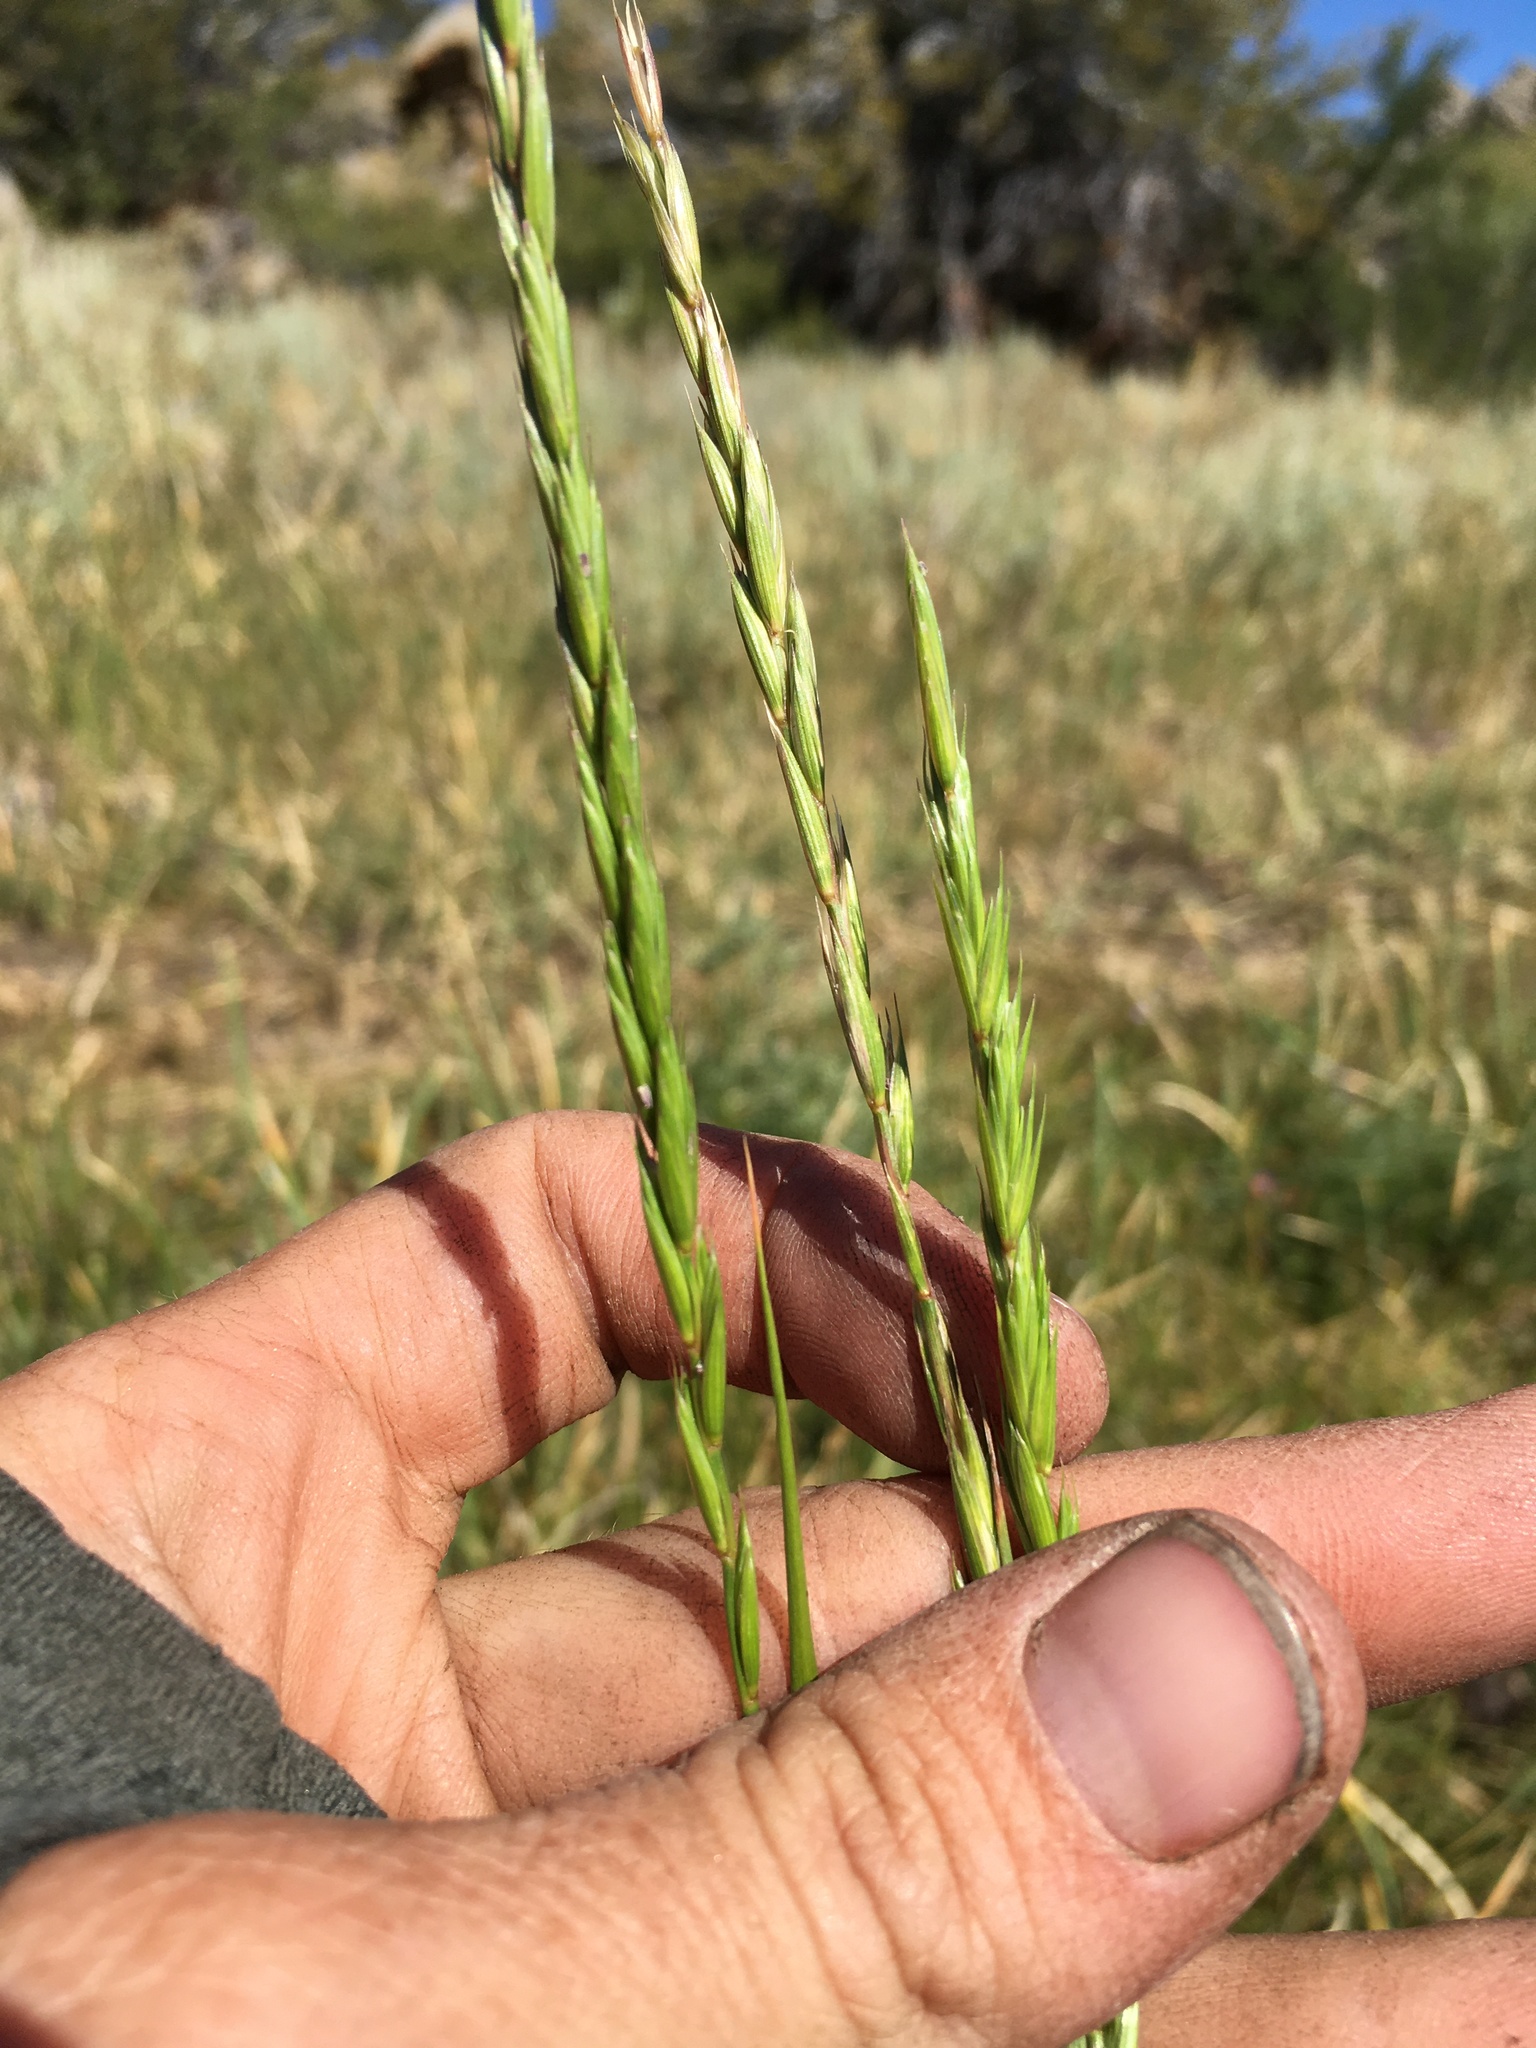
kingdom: Plantae
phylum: Tracheophyta
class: Liliopsida
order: Poales
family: Poaceae
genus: Elymus
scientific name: Elymus violaceus
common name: Arctic wheatgrass
